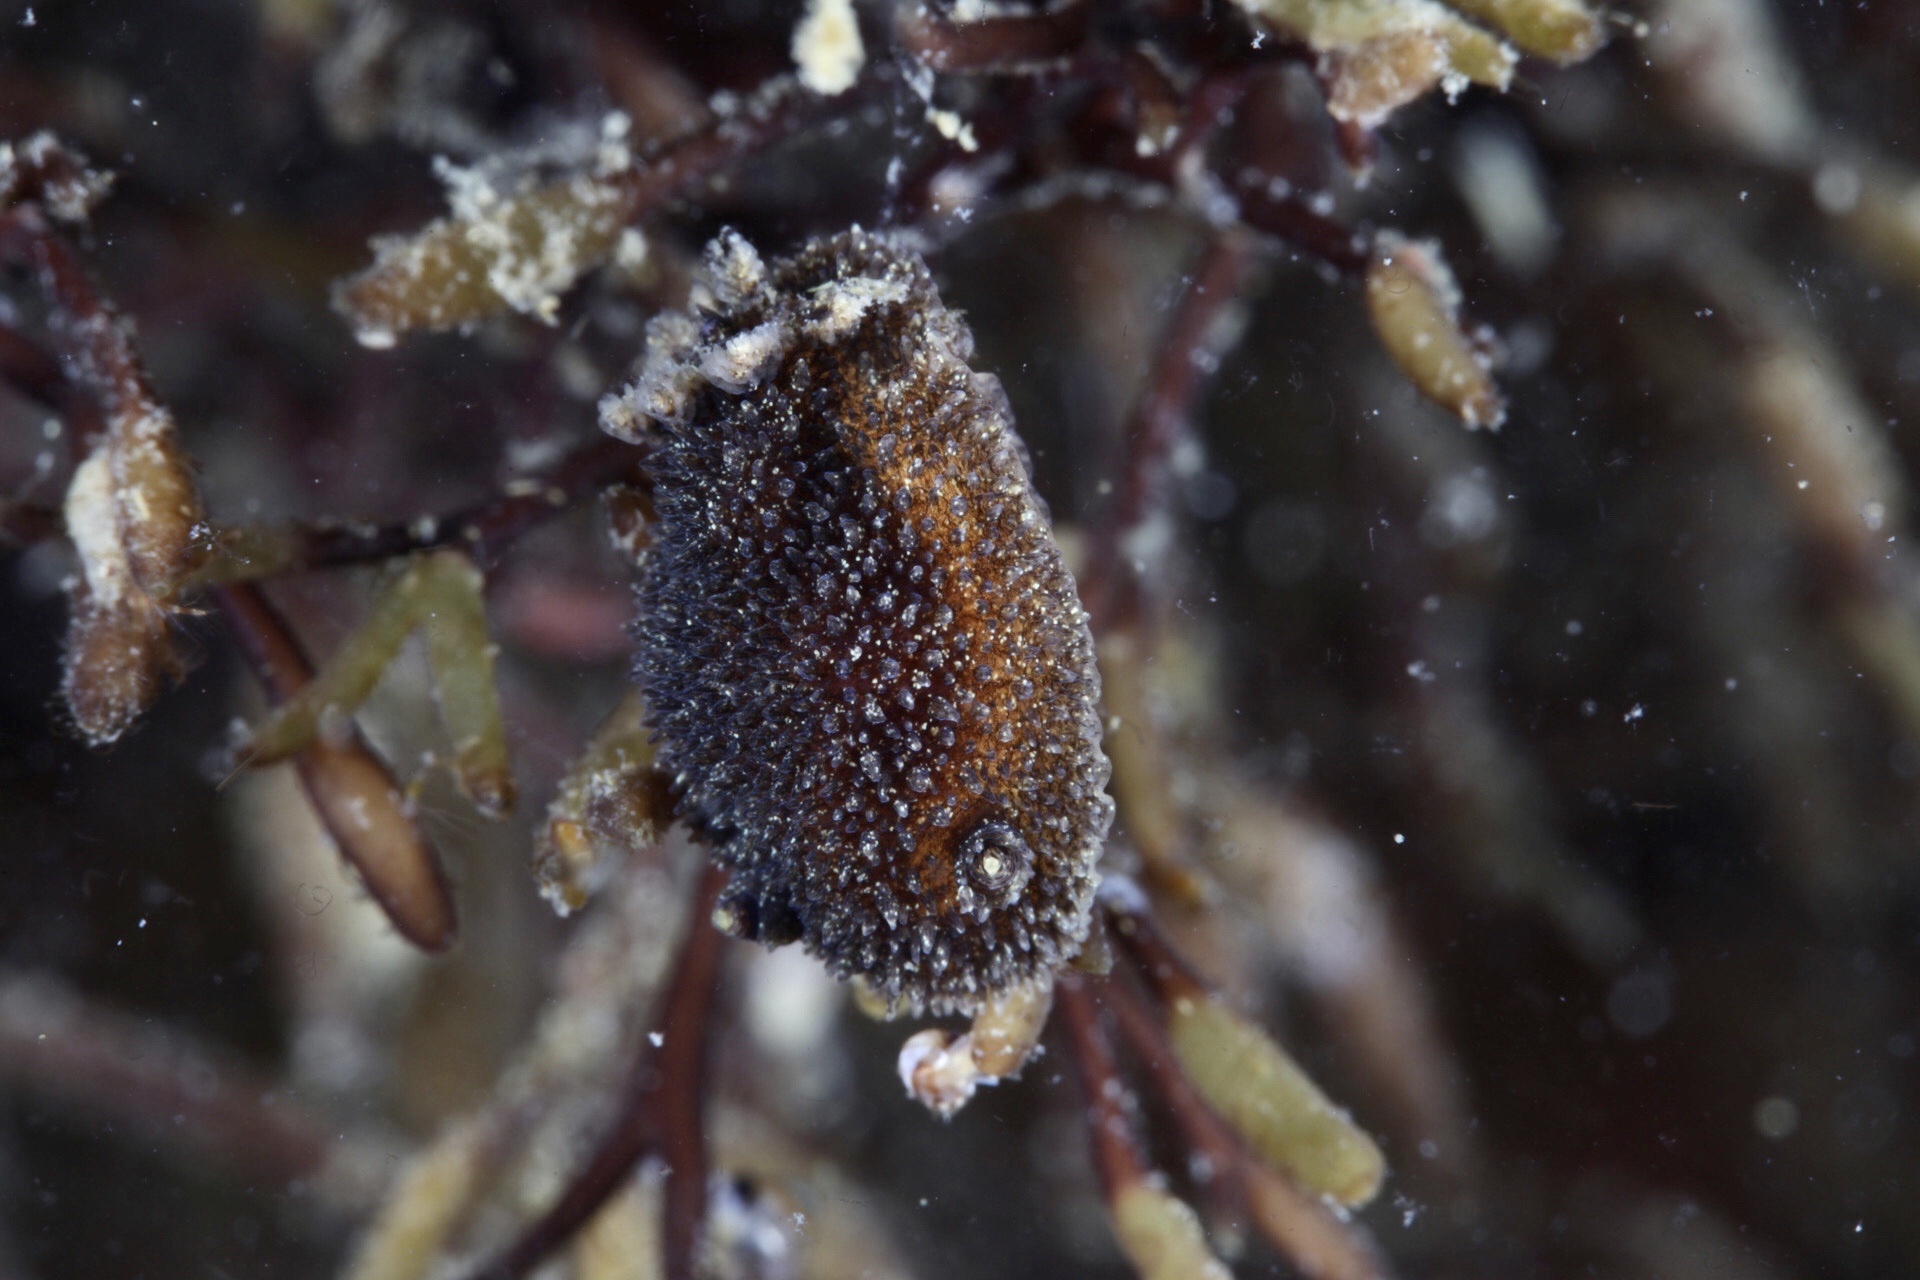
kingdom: Animalia
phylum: Mollusca
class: Gastropoda
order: Nudibranchia
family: Onchidorididae
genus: Acanthodoris
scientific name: Acanthodoris pilosa
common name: Hairy spiny doris
